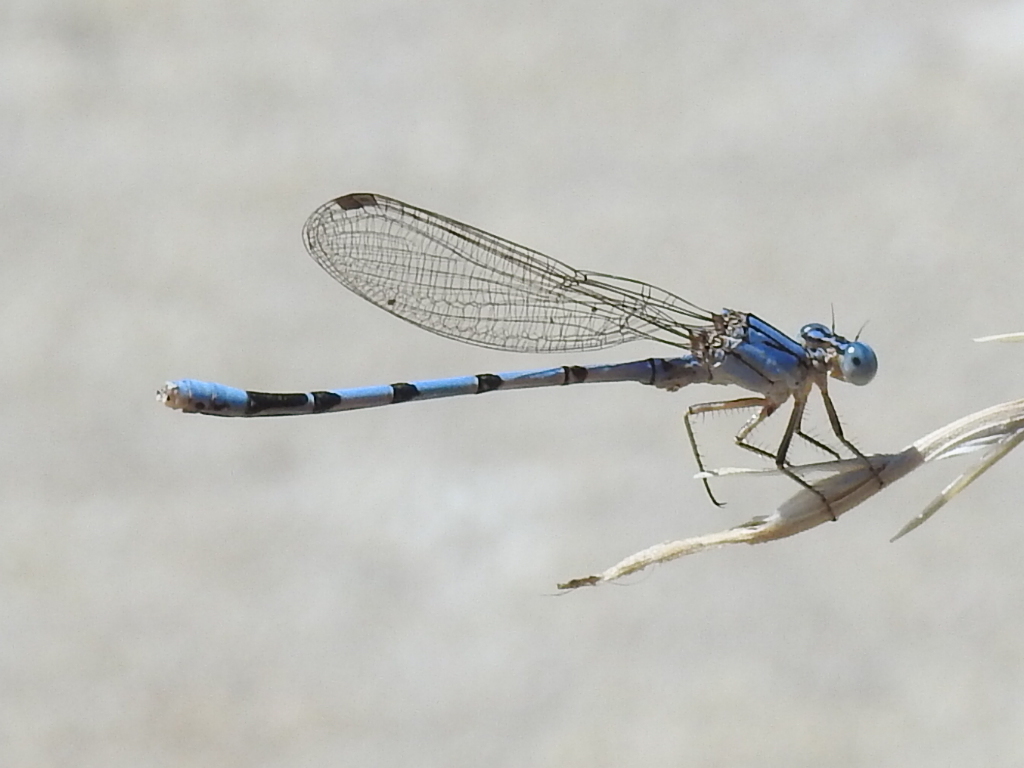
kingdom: Animalia
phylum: Arthropoda
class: Insecta
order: Odonata
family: Coenagrionidae
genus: Argia
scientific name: Argia nahuana
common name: Aztec dancer
